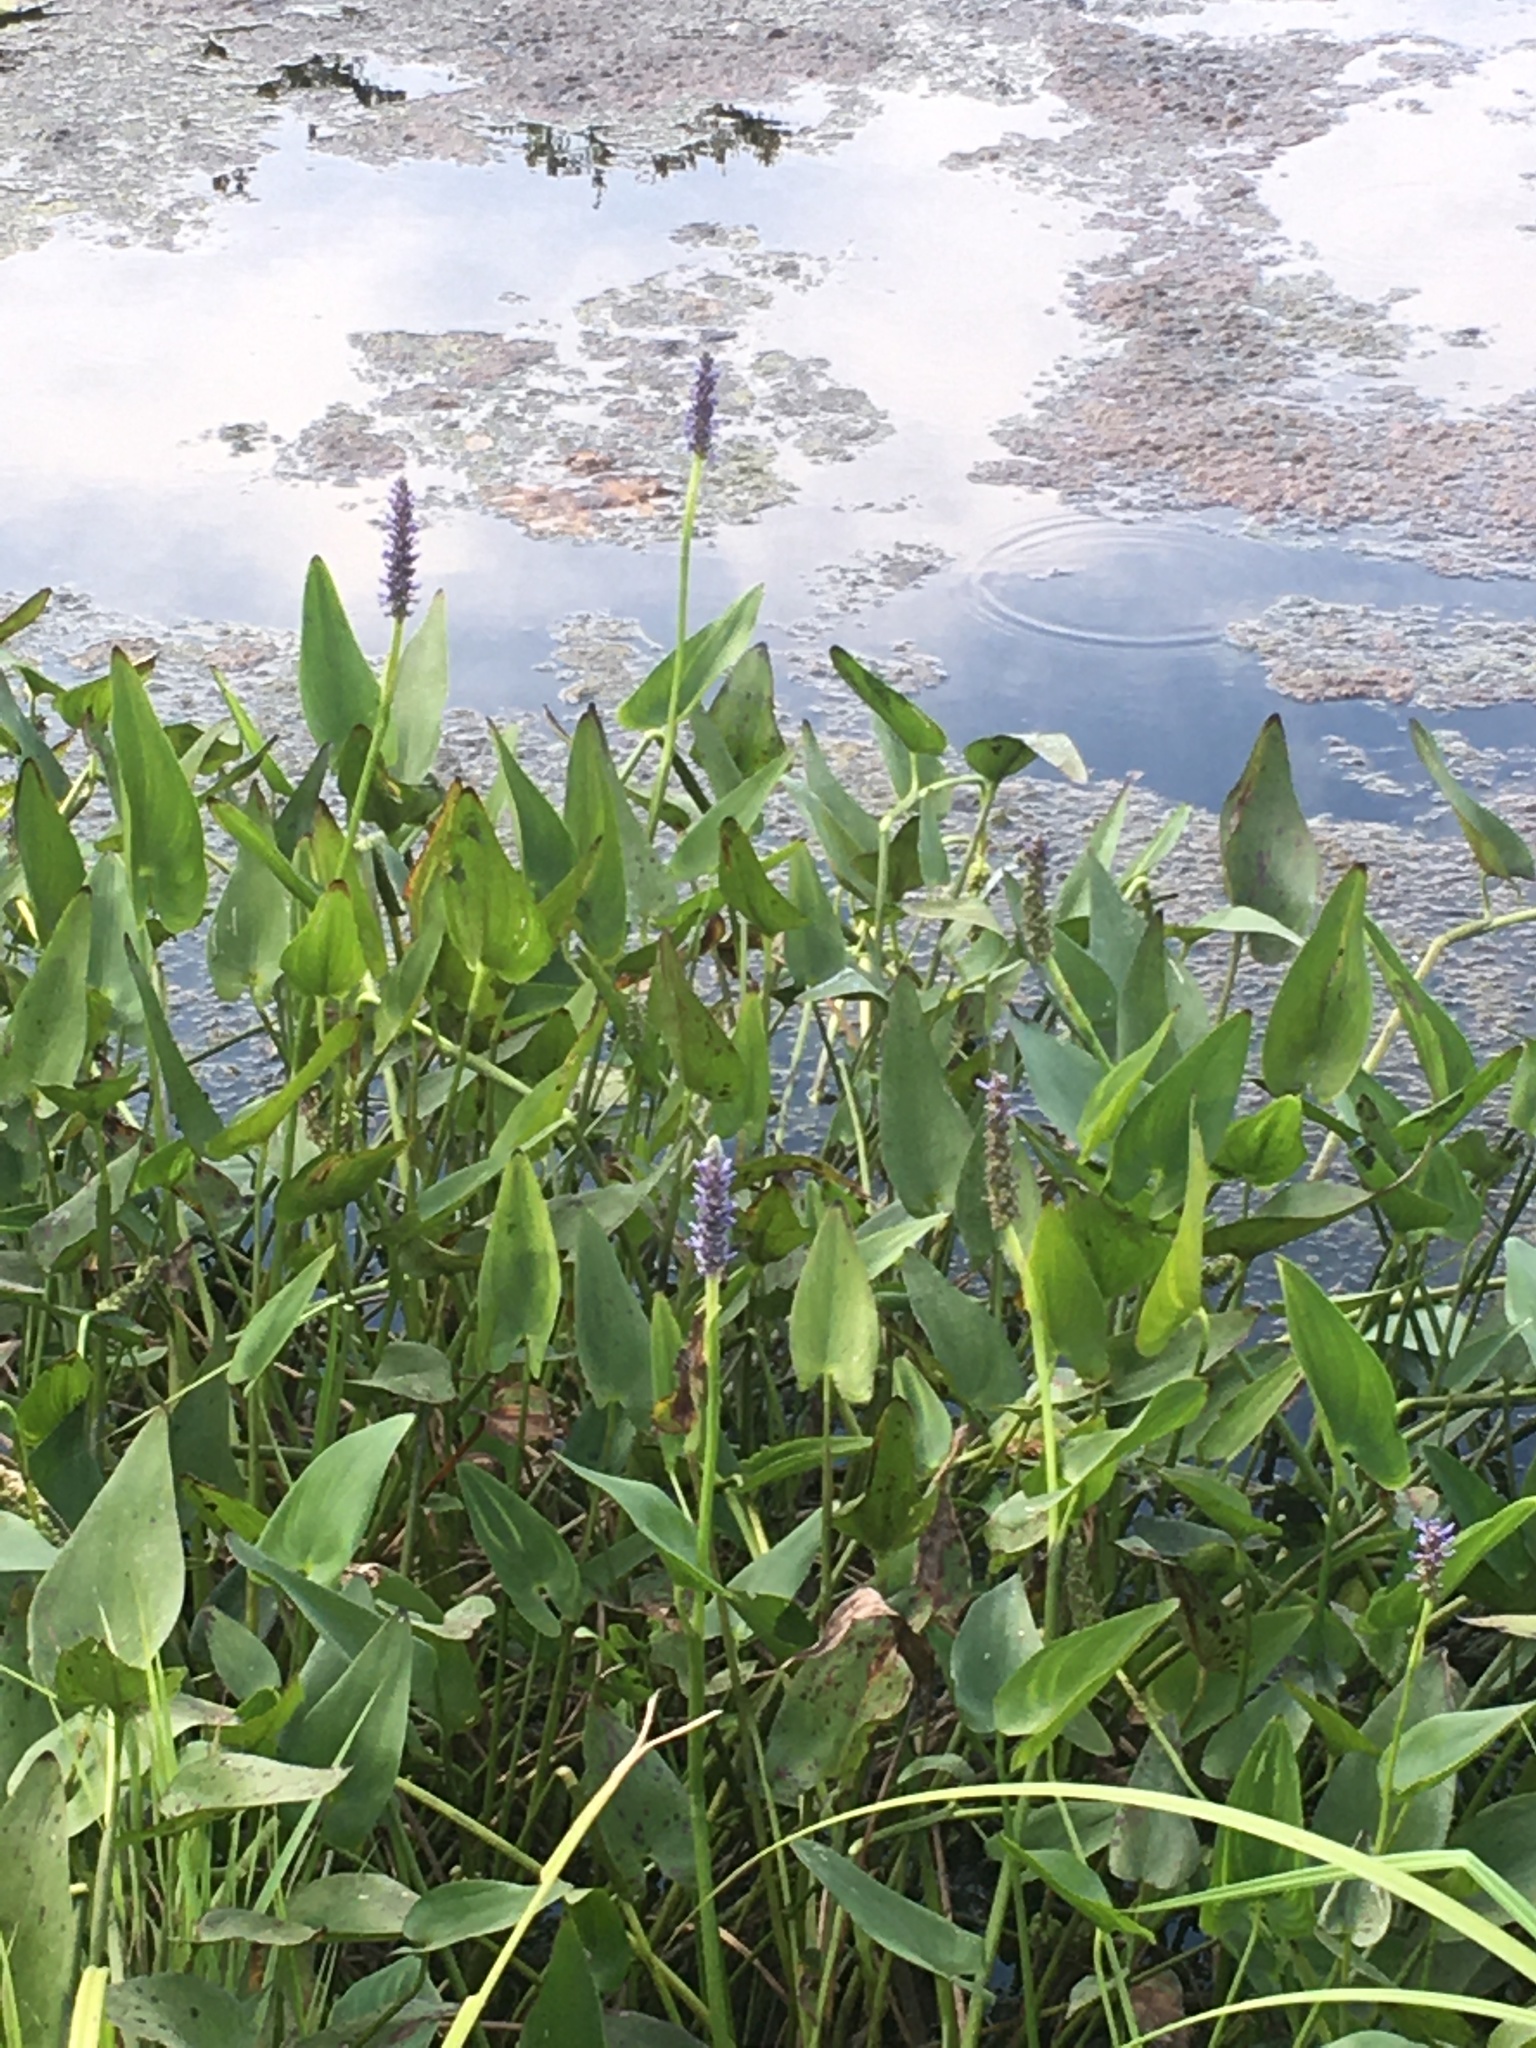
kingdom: Plantae
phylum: Tracheophyta
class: Liliopsida
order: Commelinales
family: Pontederiaceae
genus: Pontederia
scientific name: Pontederia cordata
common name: Pickerelweed
